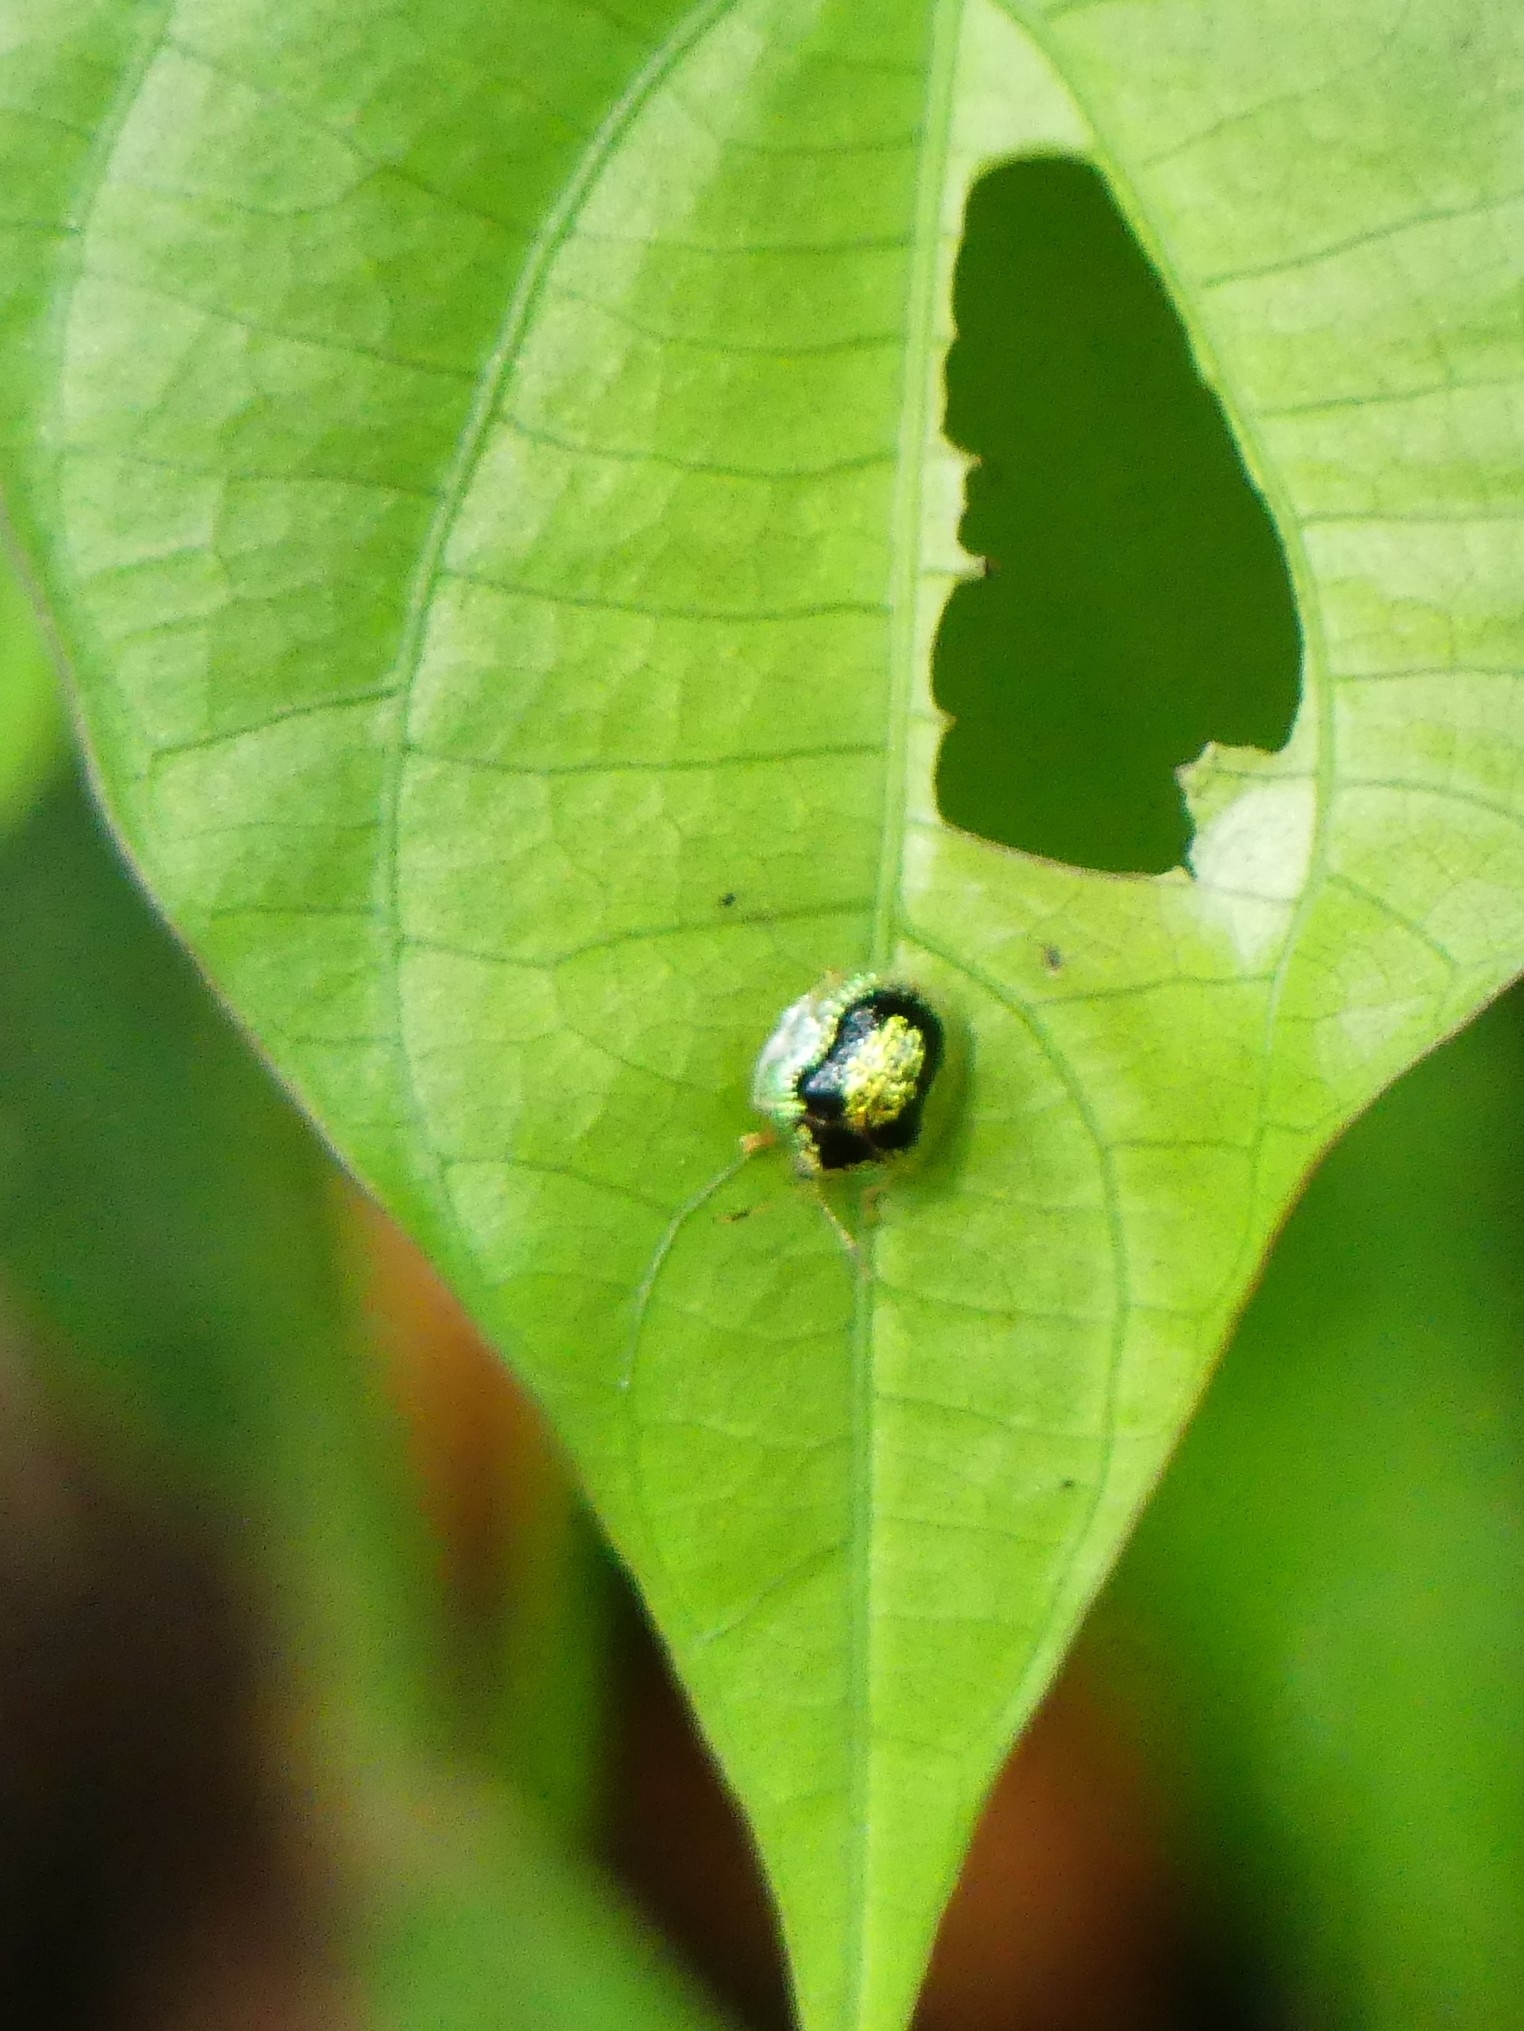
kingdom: Animalia
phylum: Arthropoda
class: Insecta
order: Coleoptera
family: Chrysomelidae
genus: Microctenochira
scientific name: Microctenochira sertata
